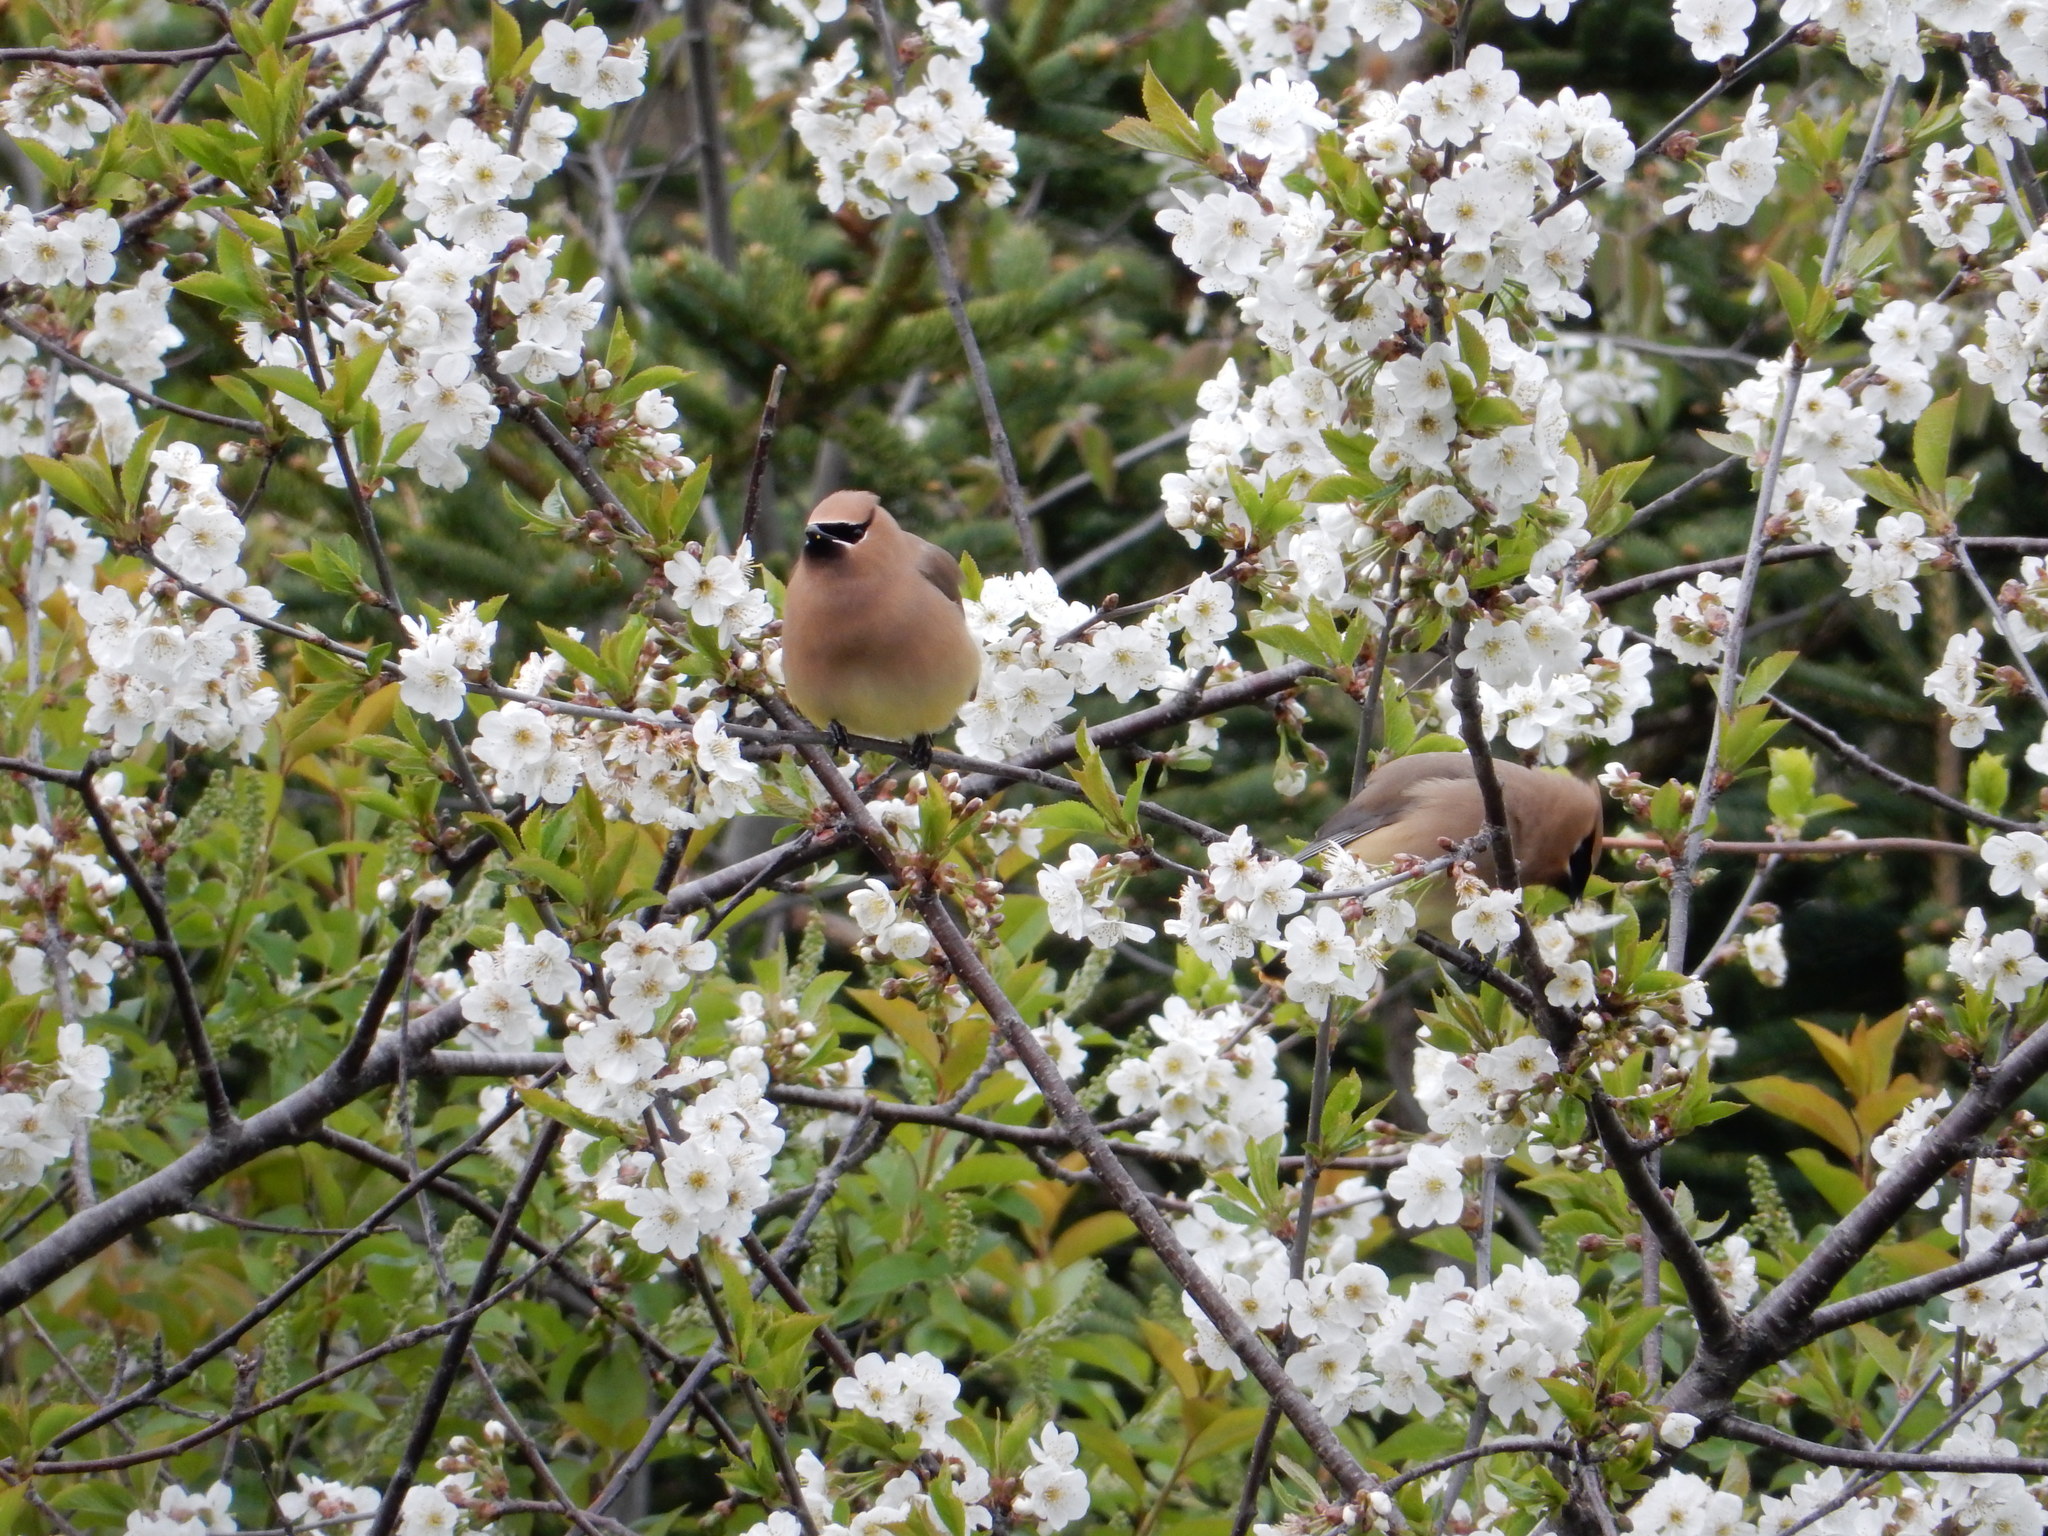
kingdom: Animalia
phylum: Chordata
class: Aves
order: Passeriformes
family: Bombycillidae
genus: Bombycilla
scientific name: Bombycilla cedrorum
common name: Cedar waxwing
